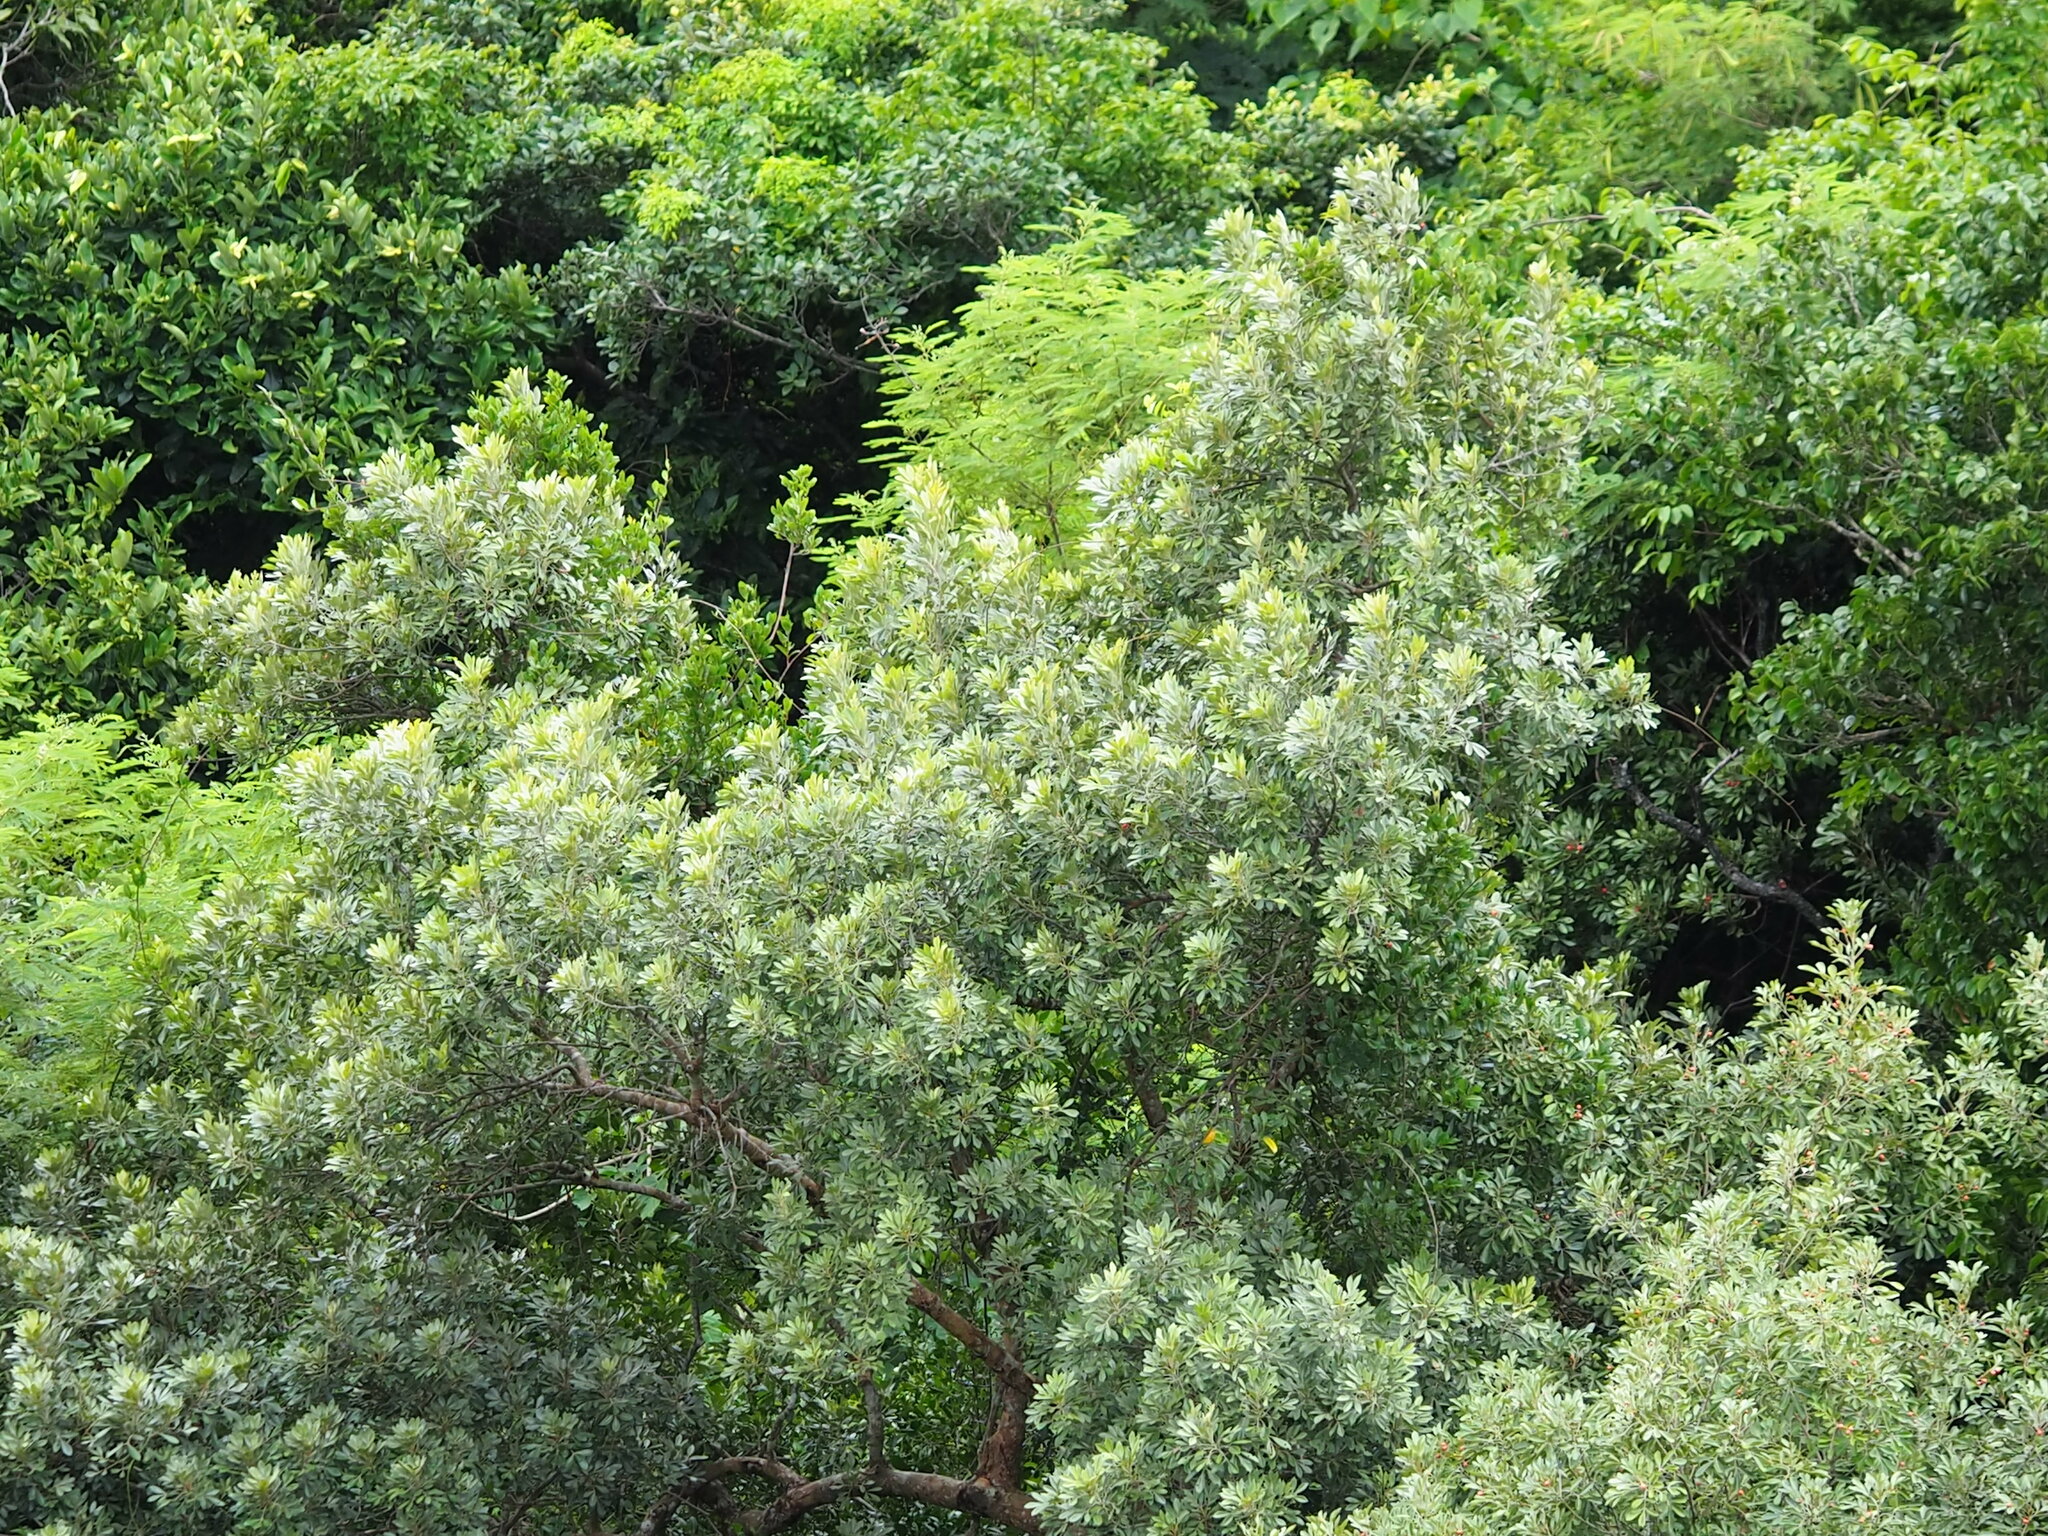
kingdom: Plantae
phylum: Tracheophyta
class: Magnoliopsida
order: Sapindales
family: Meliaceae
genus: Aglaia
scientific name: Aglaia elaeagnoidea
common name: Droopyleaf
